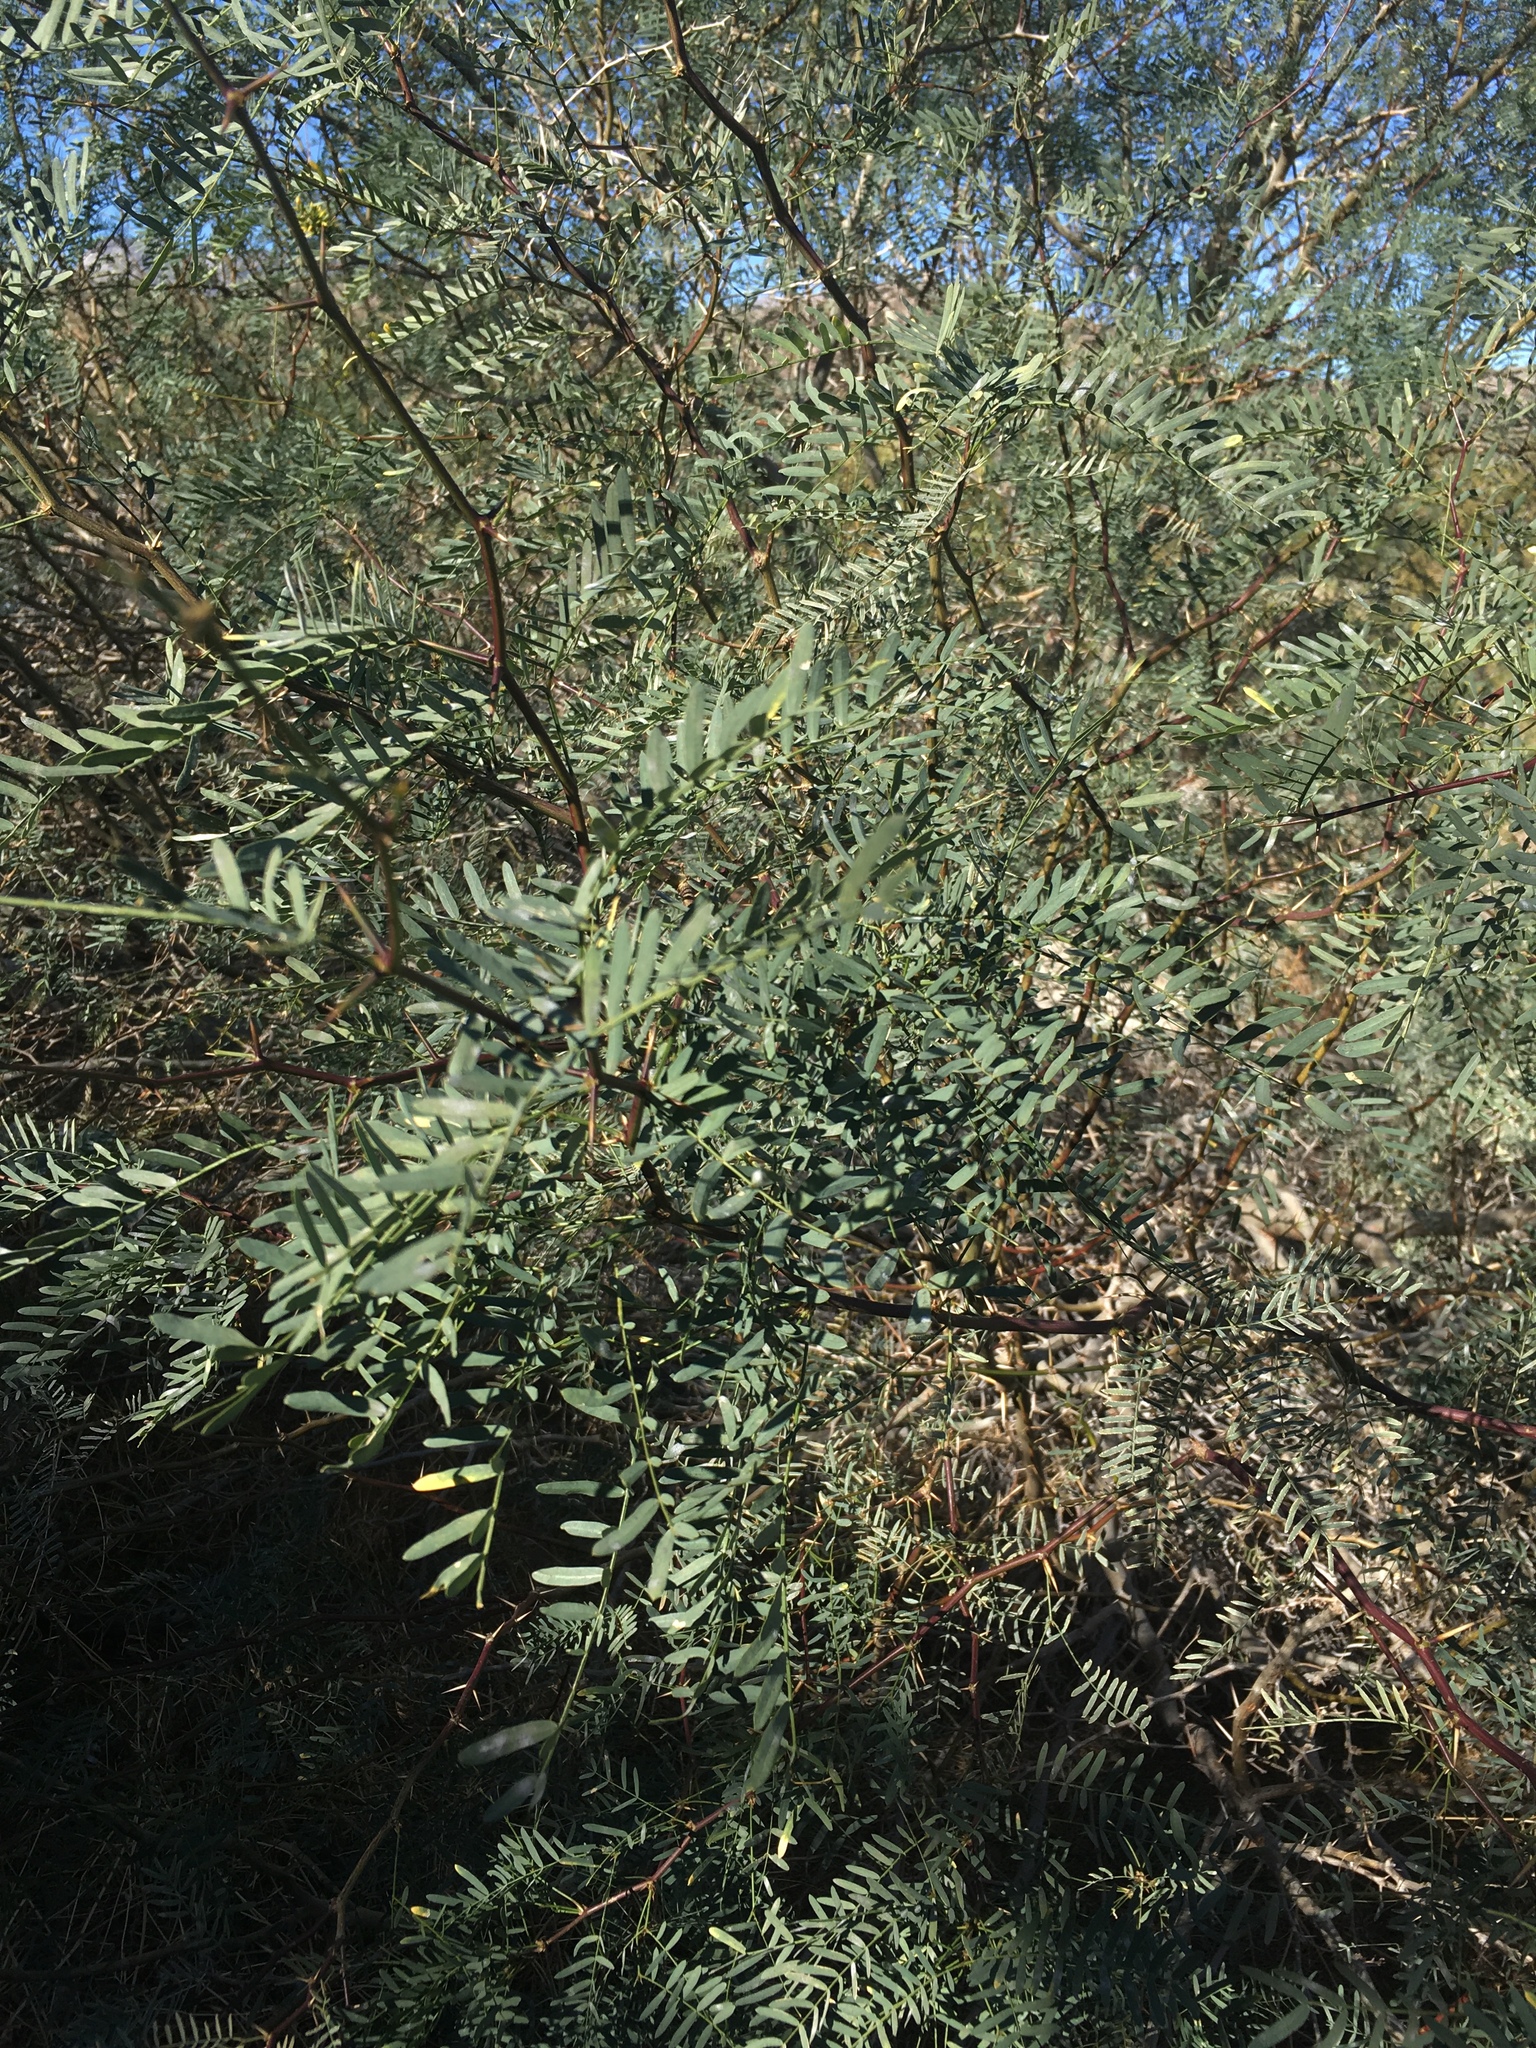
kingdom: Plantae
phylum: Tracheophyta
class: Magnoliopsida
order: Fabales
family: Fabaceae
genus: Prosopis
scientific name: Prosopis pubescens
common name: Screw-bean
